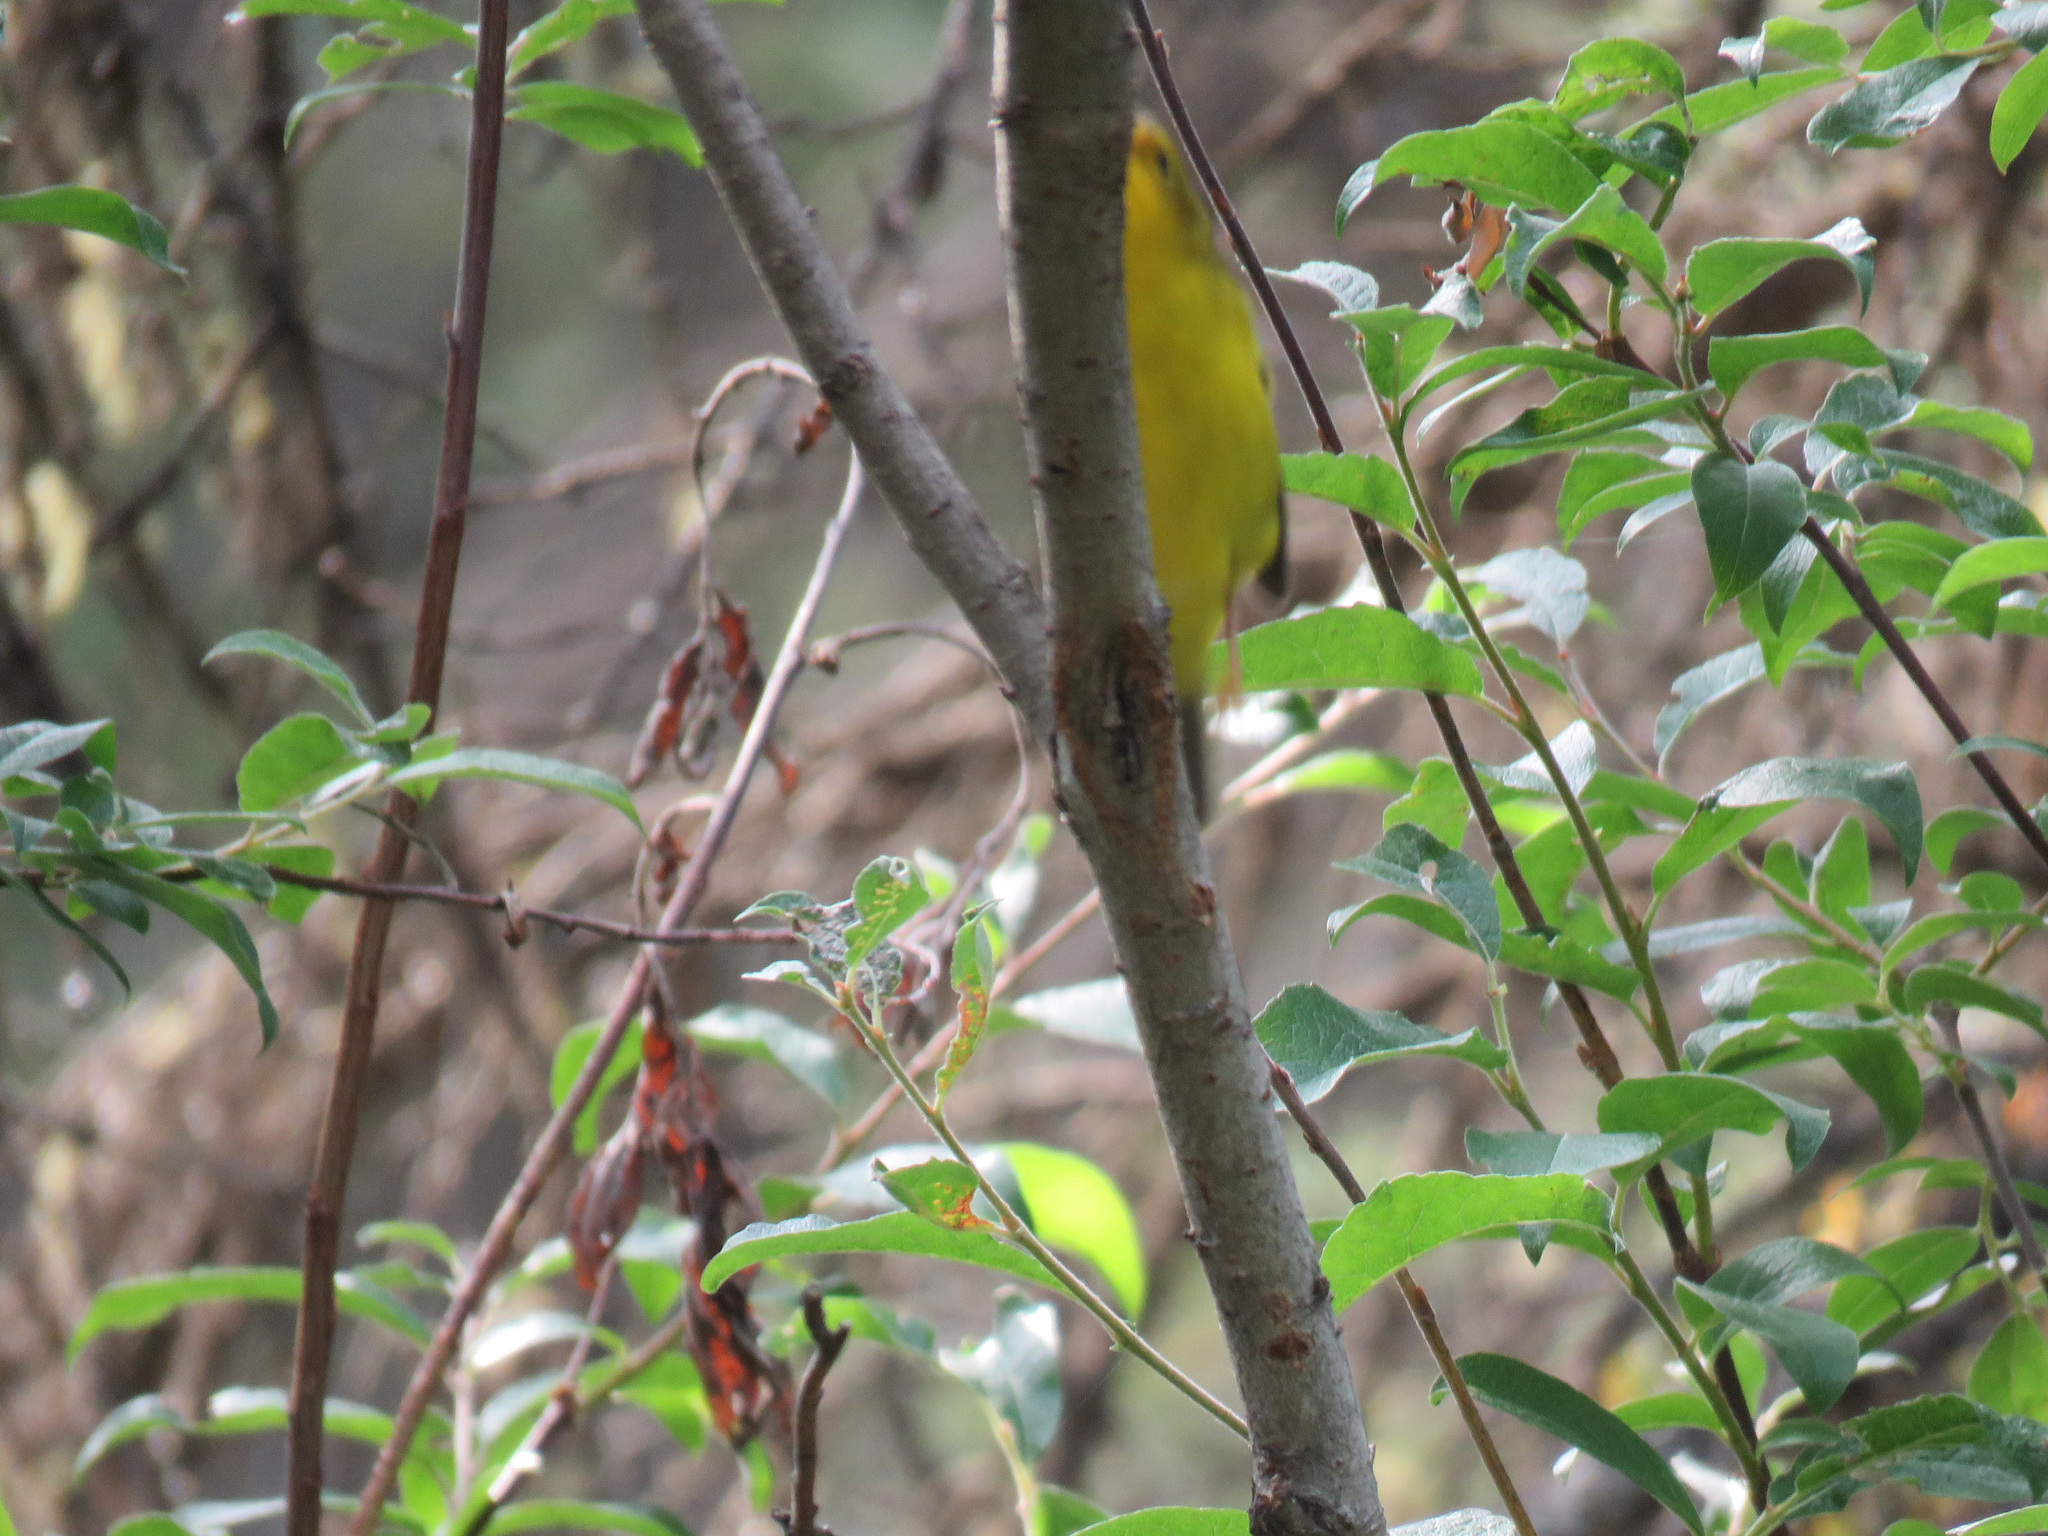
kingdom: Animalia
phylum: Chordata
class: Aves
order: Passeriformes
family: Parulidae
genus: Cardellina
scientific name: Cardellina pusilla
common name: Wilson's warbler
